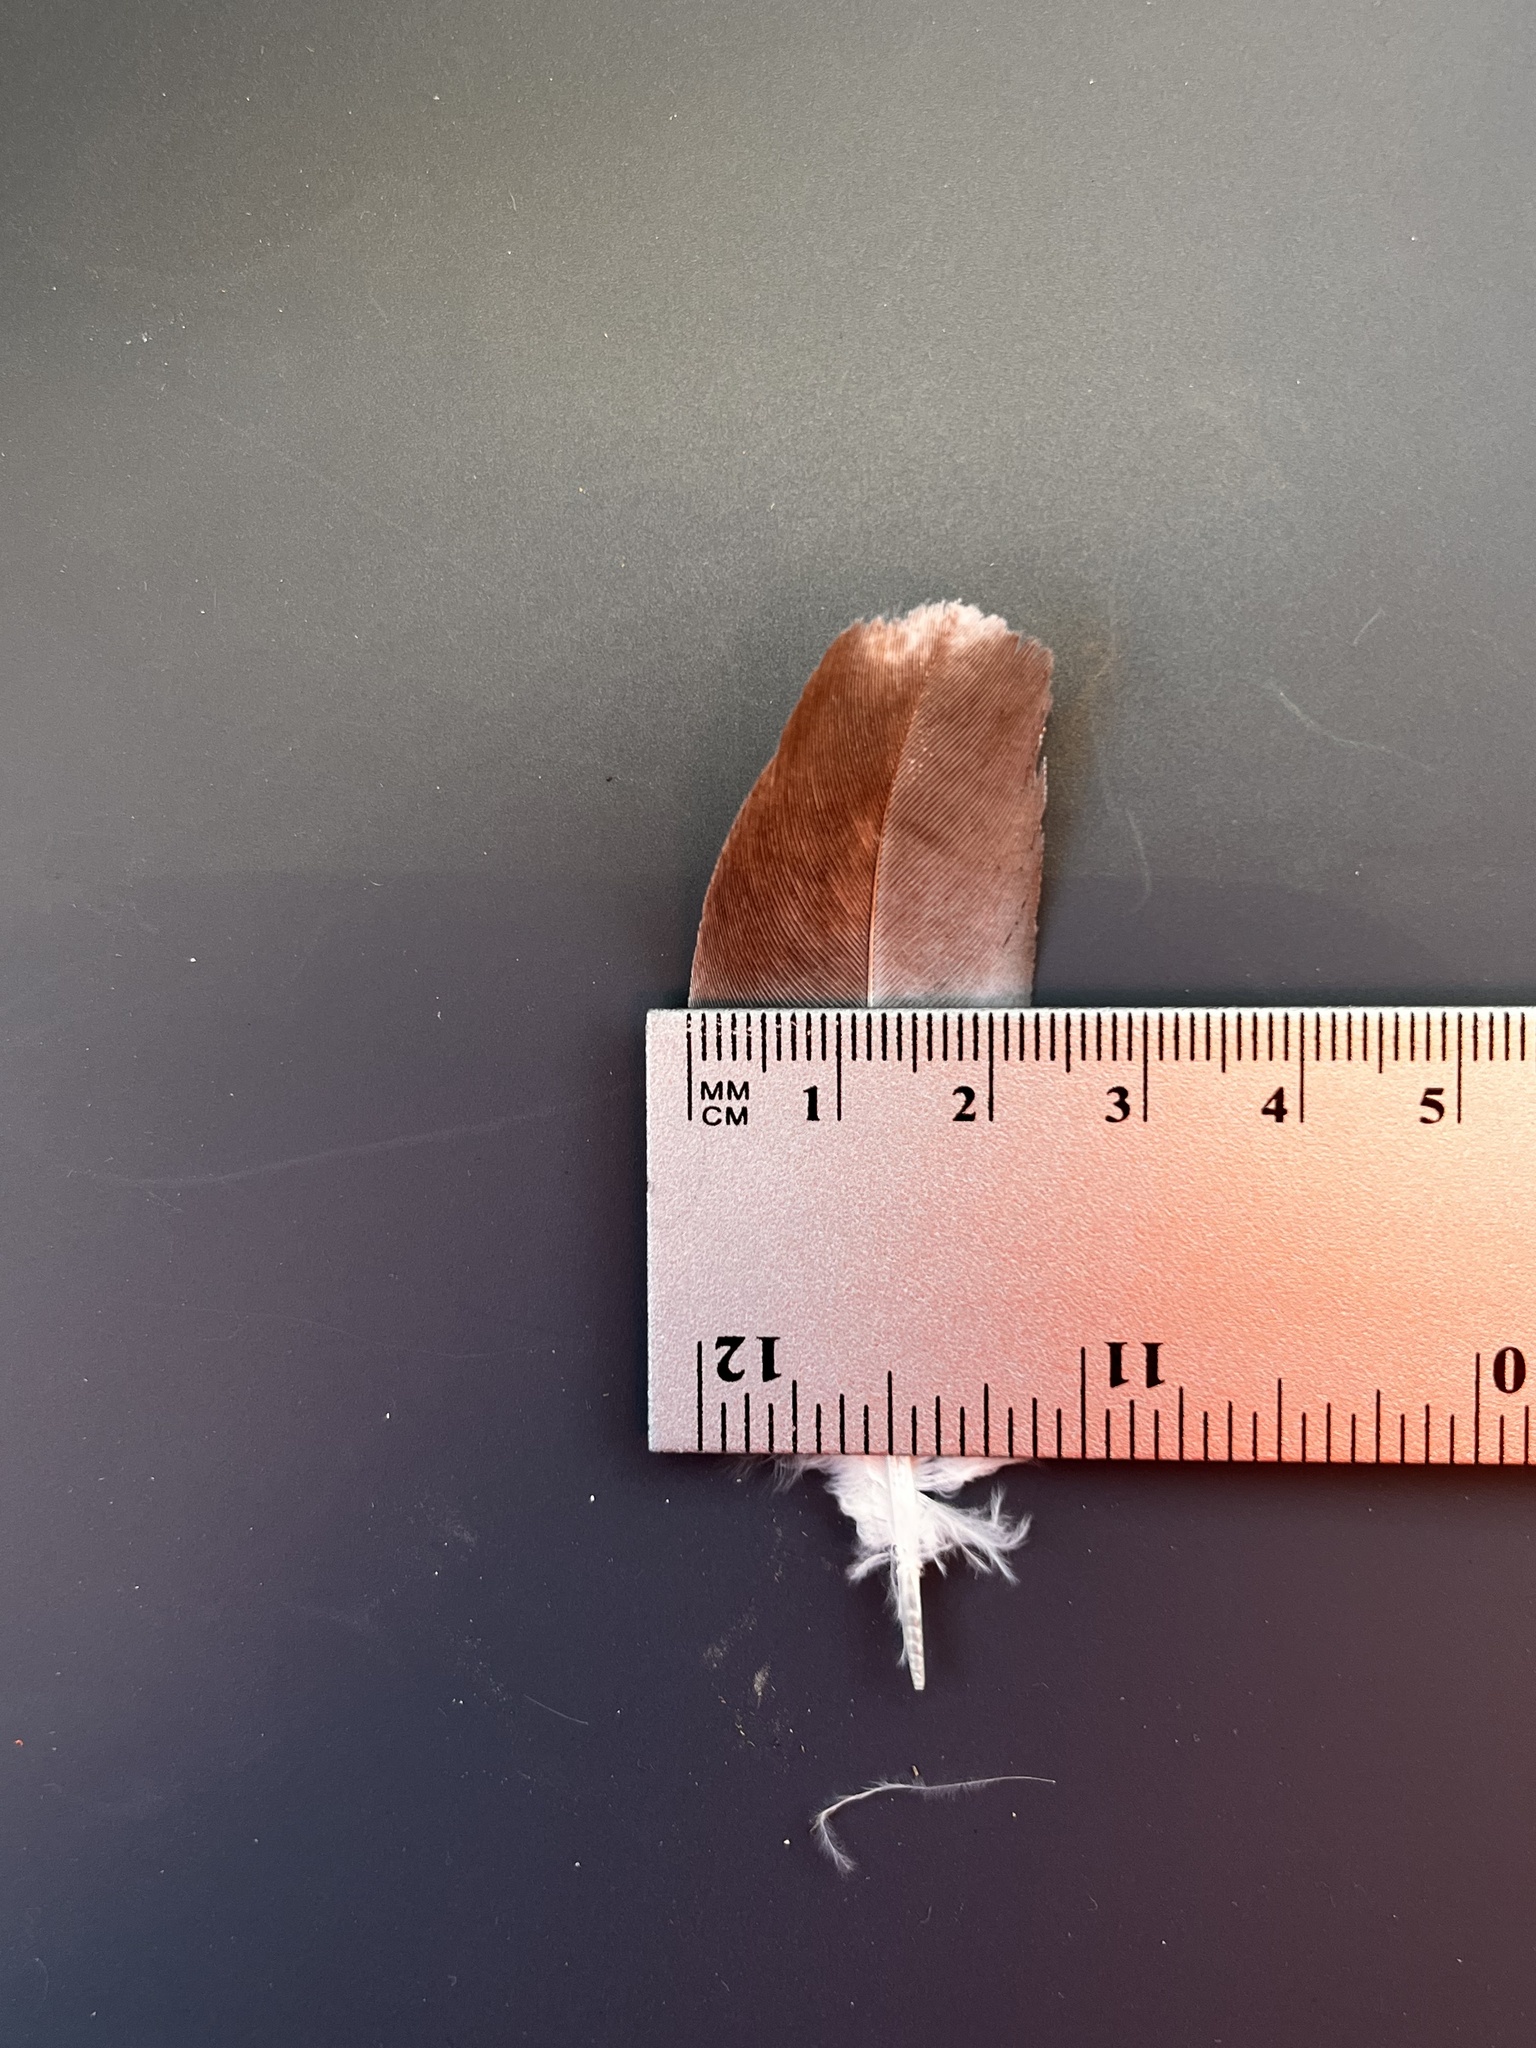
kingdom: Animalia
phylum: Chordata
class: Aves
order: Columbiformes
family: Columbidae
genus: Columba
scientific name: Columba livia
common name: Rock pigeon
